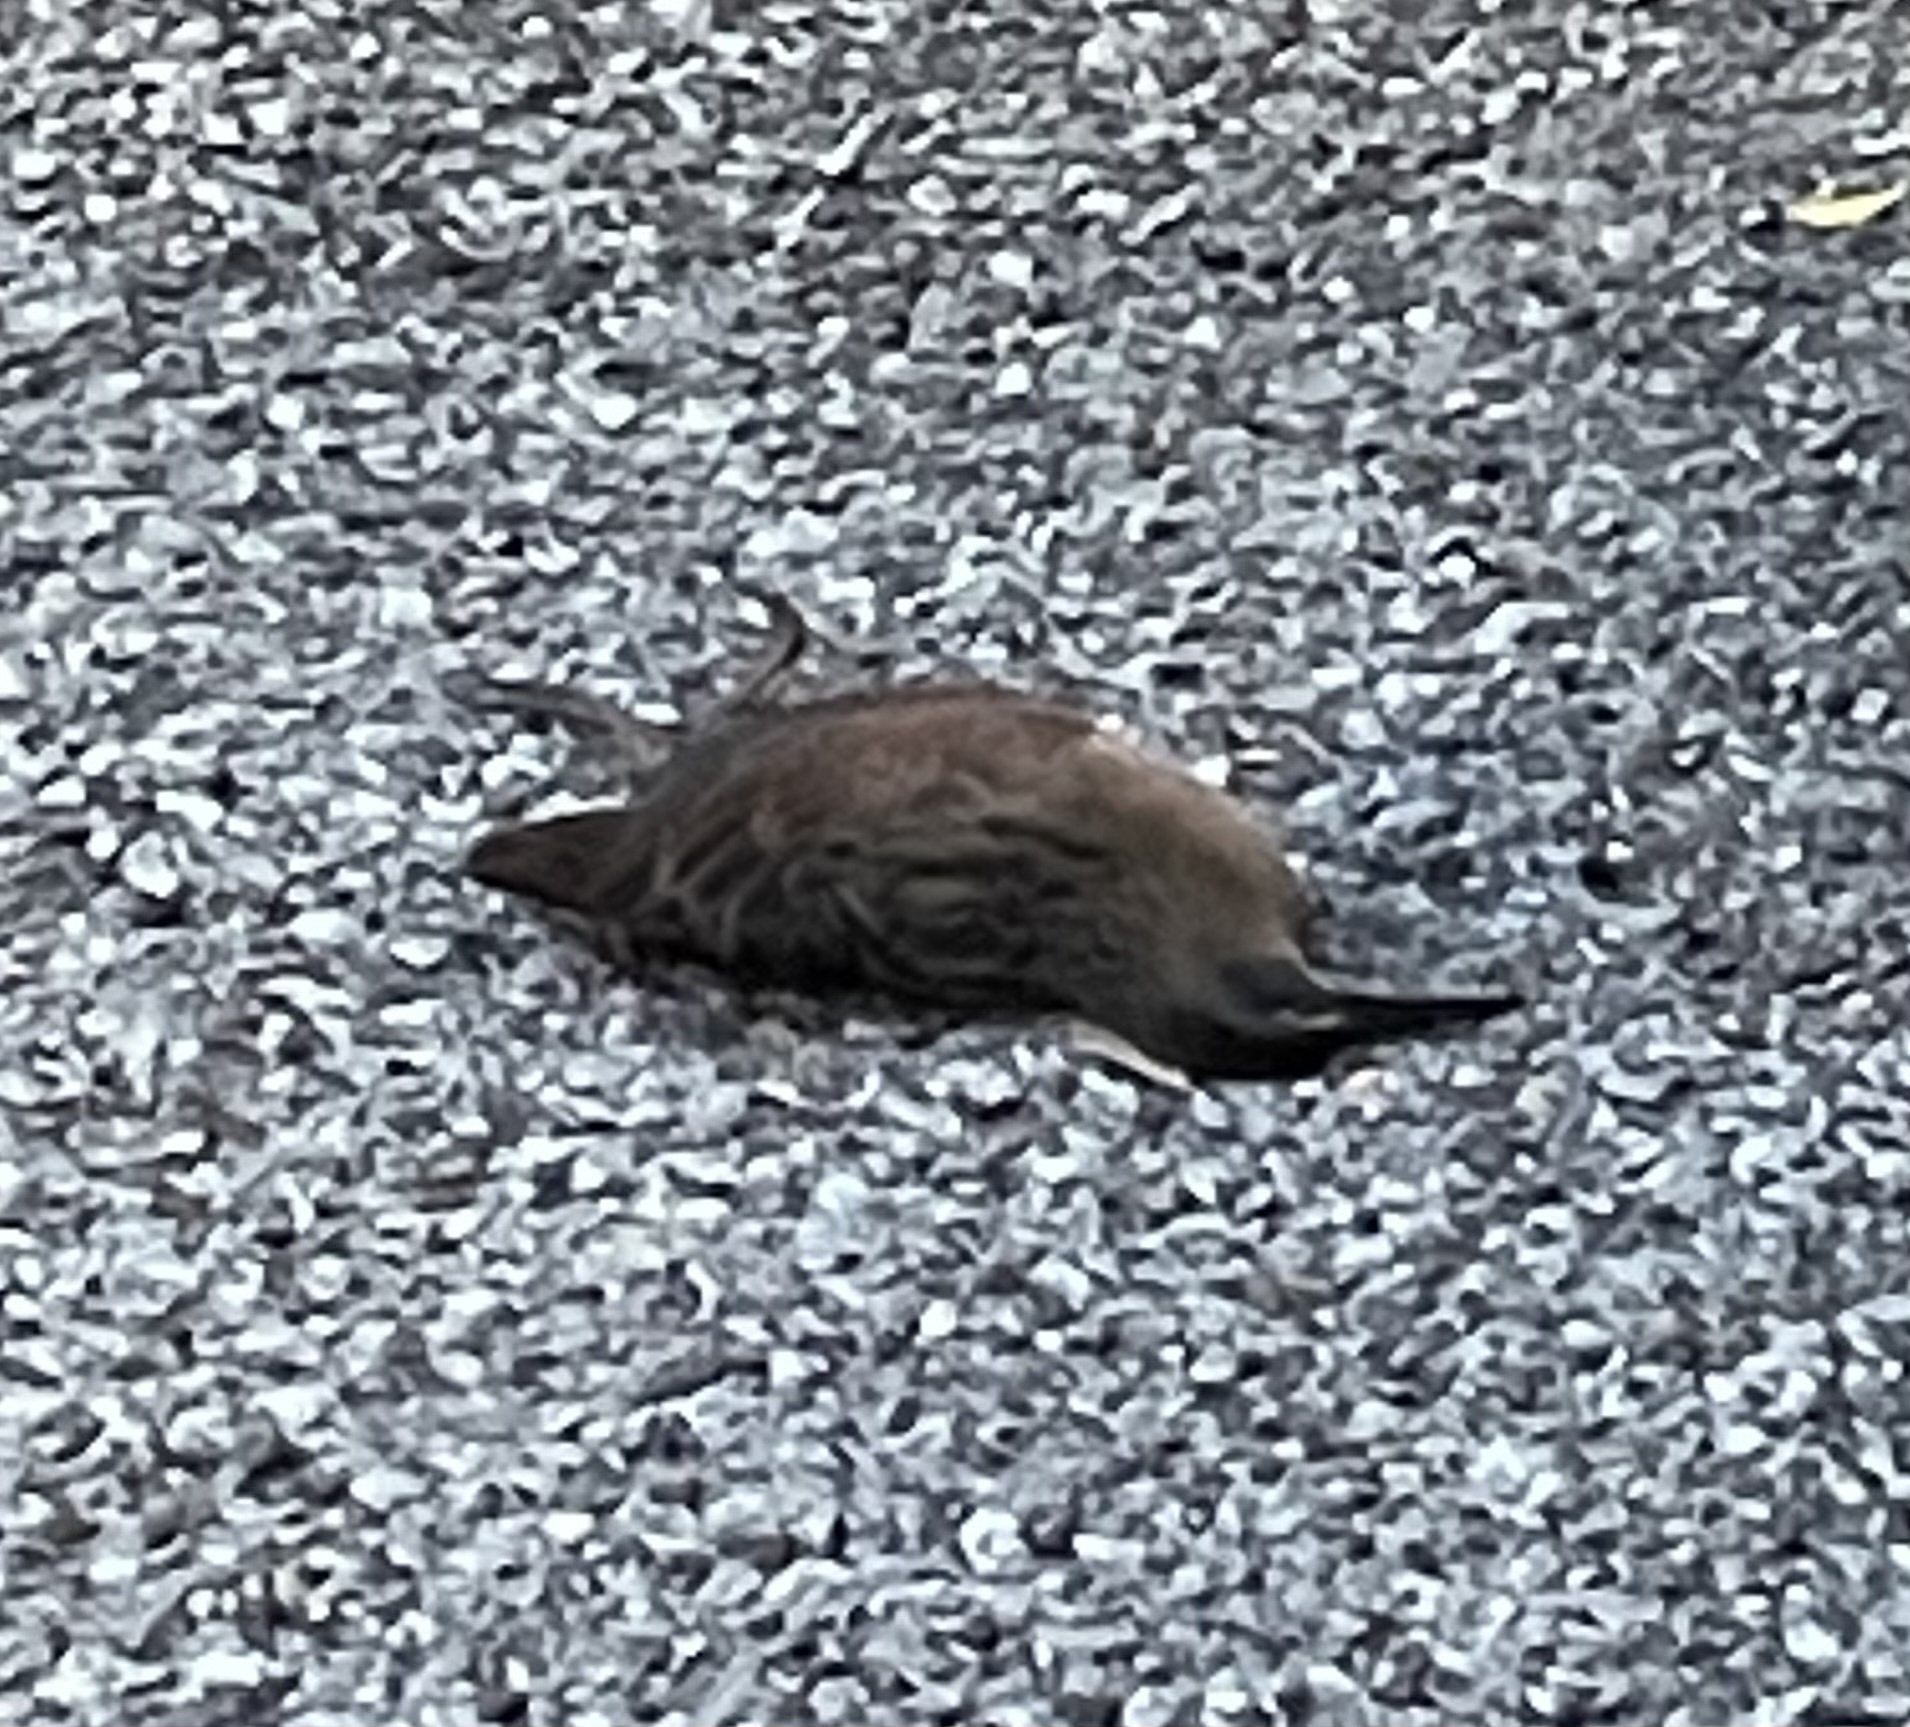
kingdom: Animalia
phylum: Chordata
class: Aves
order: Gruiformes
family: Rallidae
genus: Rallus
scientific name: Rallus limicola
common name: Virginia rail
